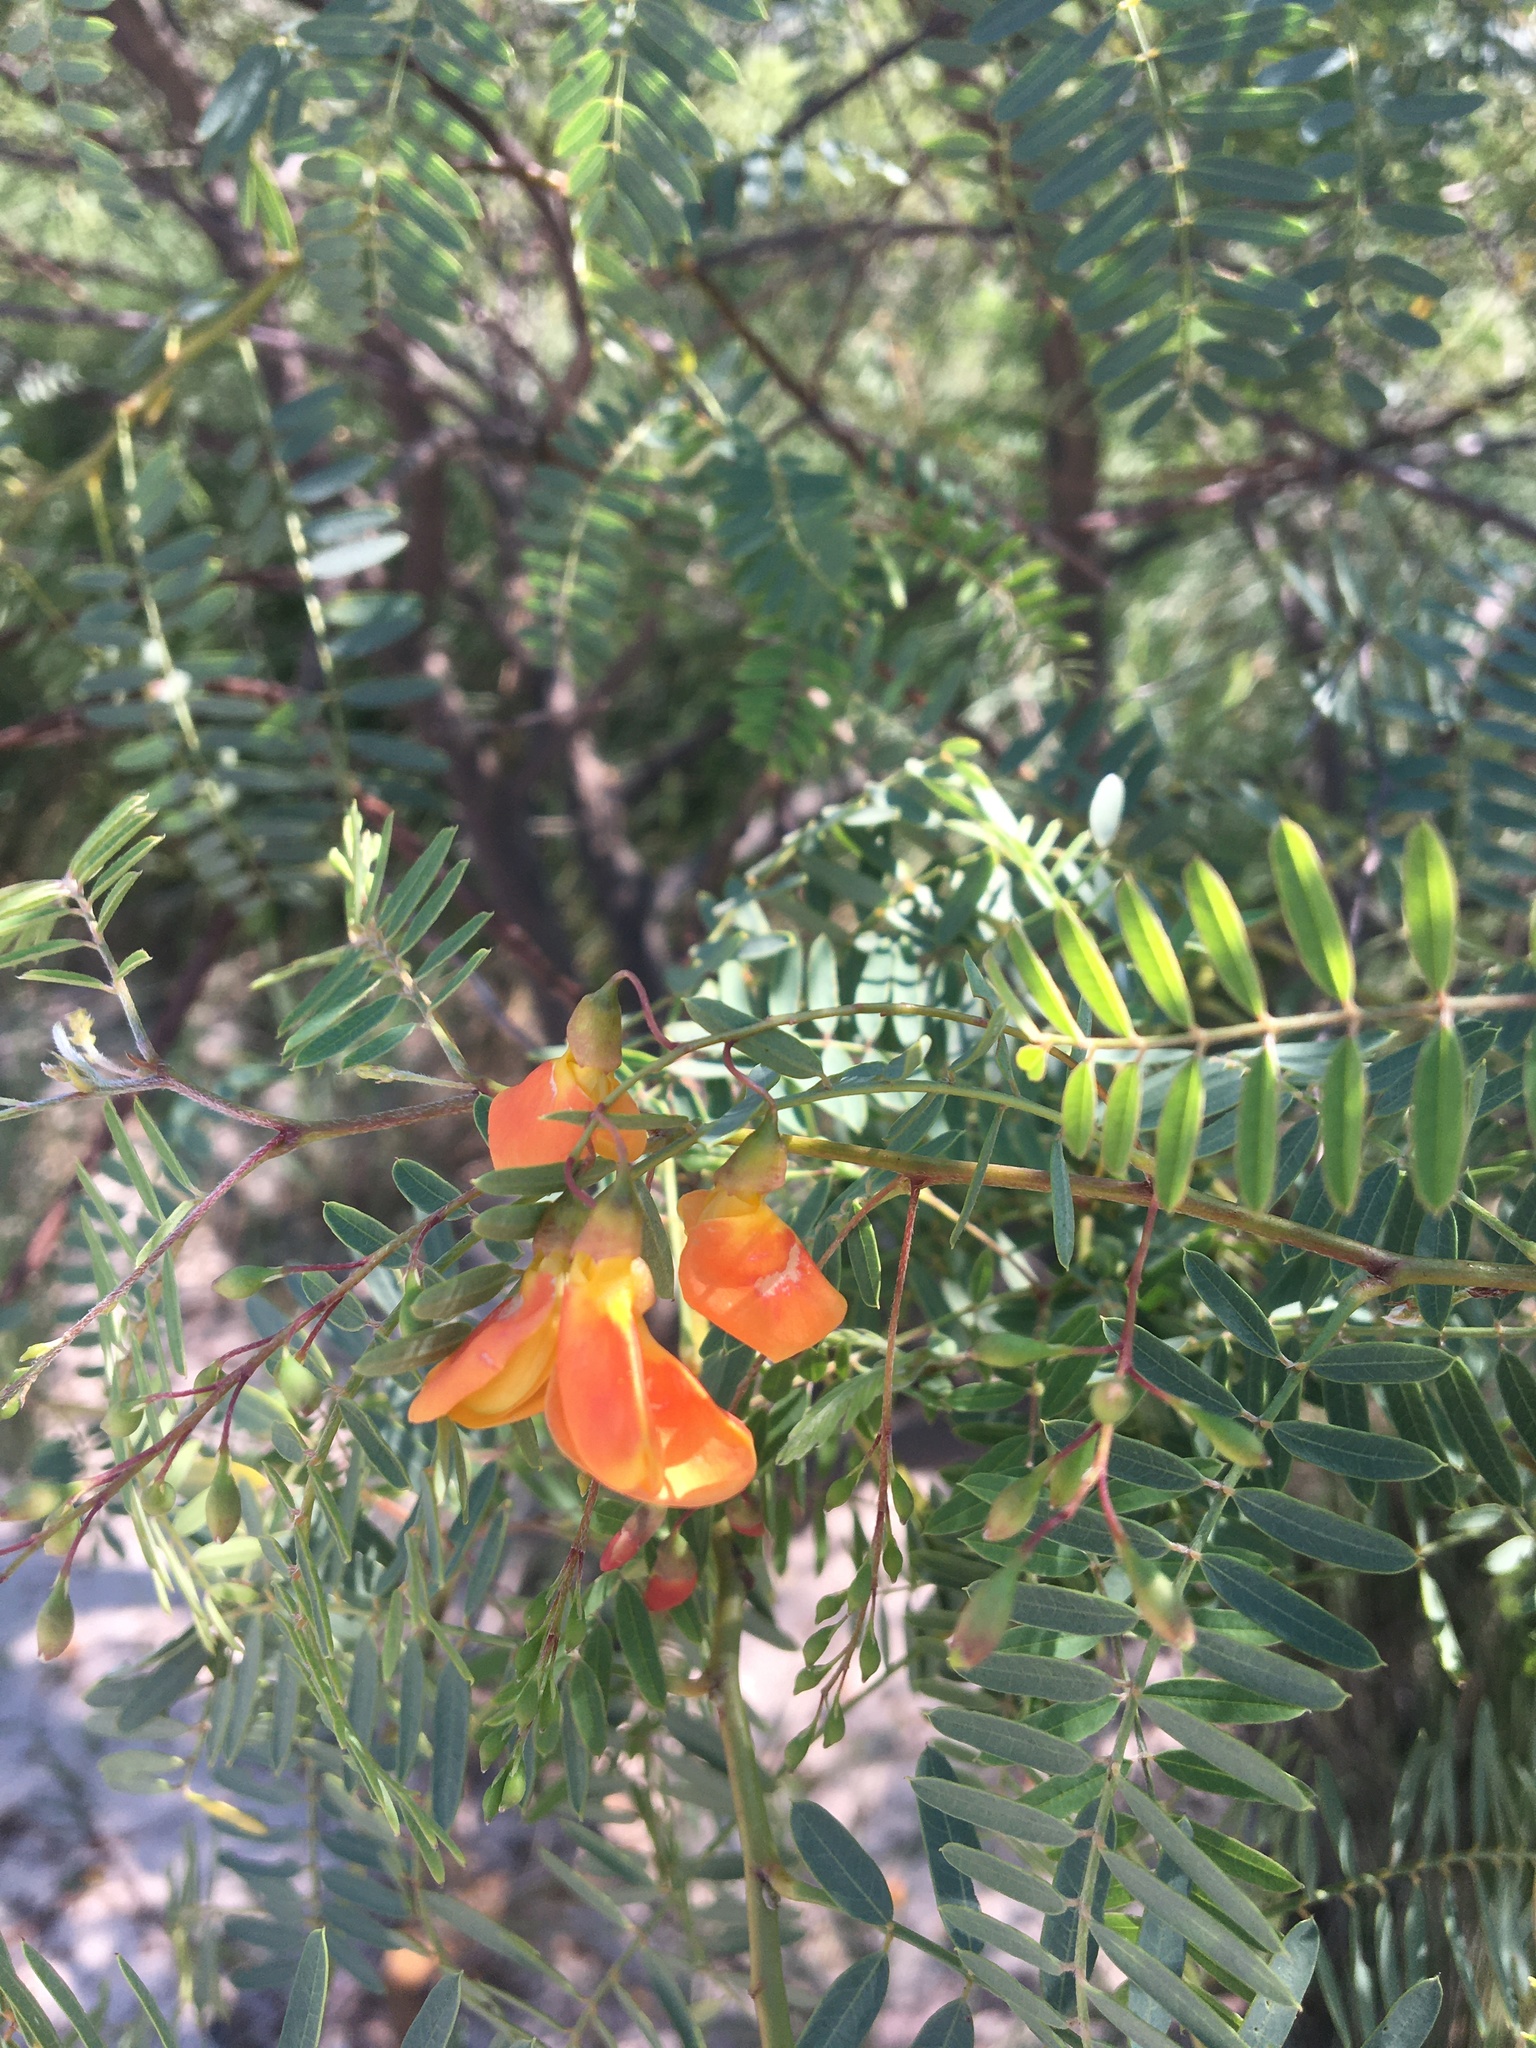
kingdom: Plantae
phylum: Tracheophyta
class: Magnoliopsida
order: Fabales
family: Fabaceae
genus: Sesbania
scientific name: Sesbania punicea
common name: Rattlebox
